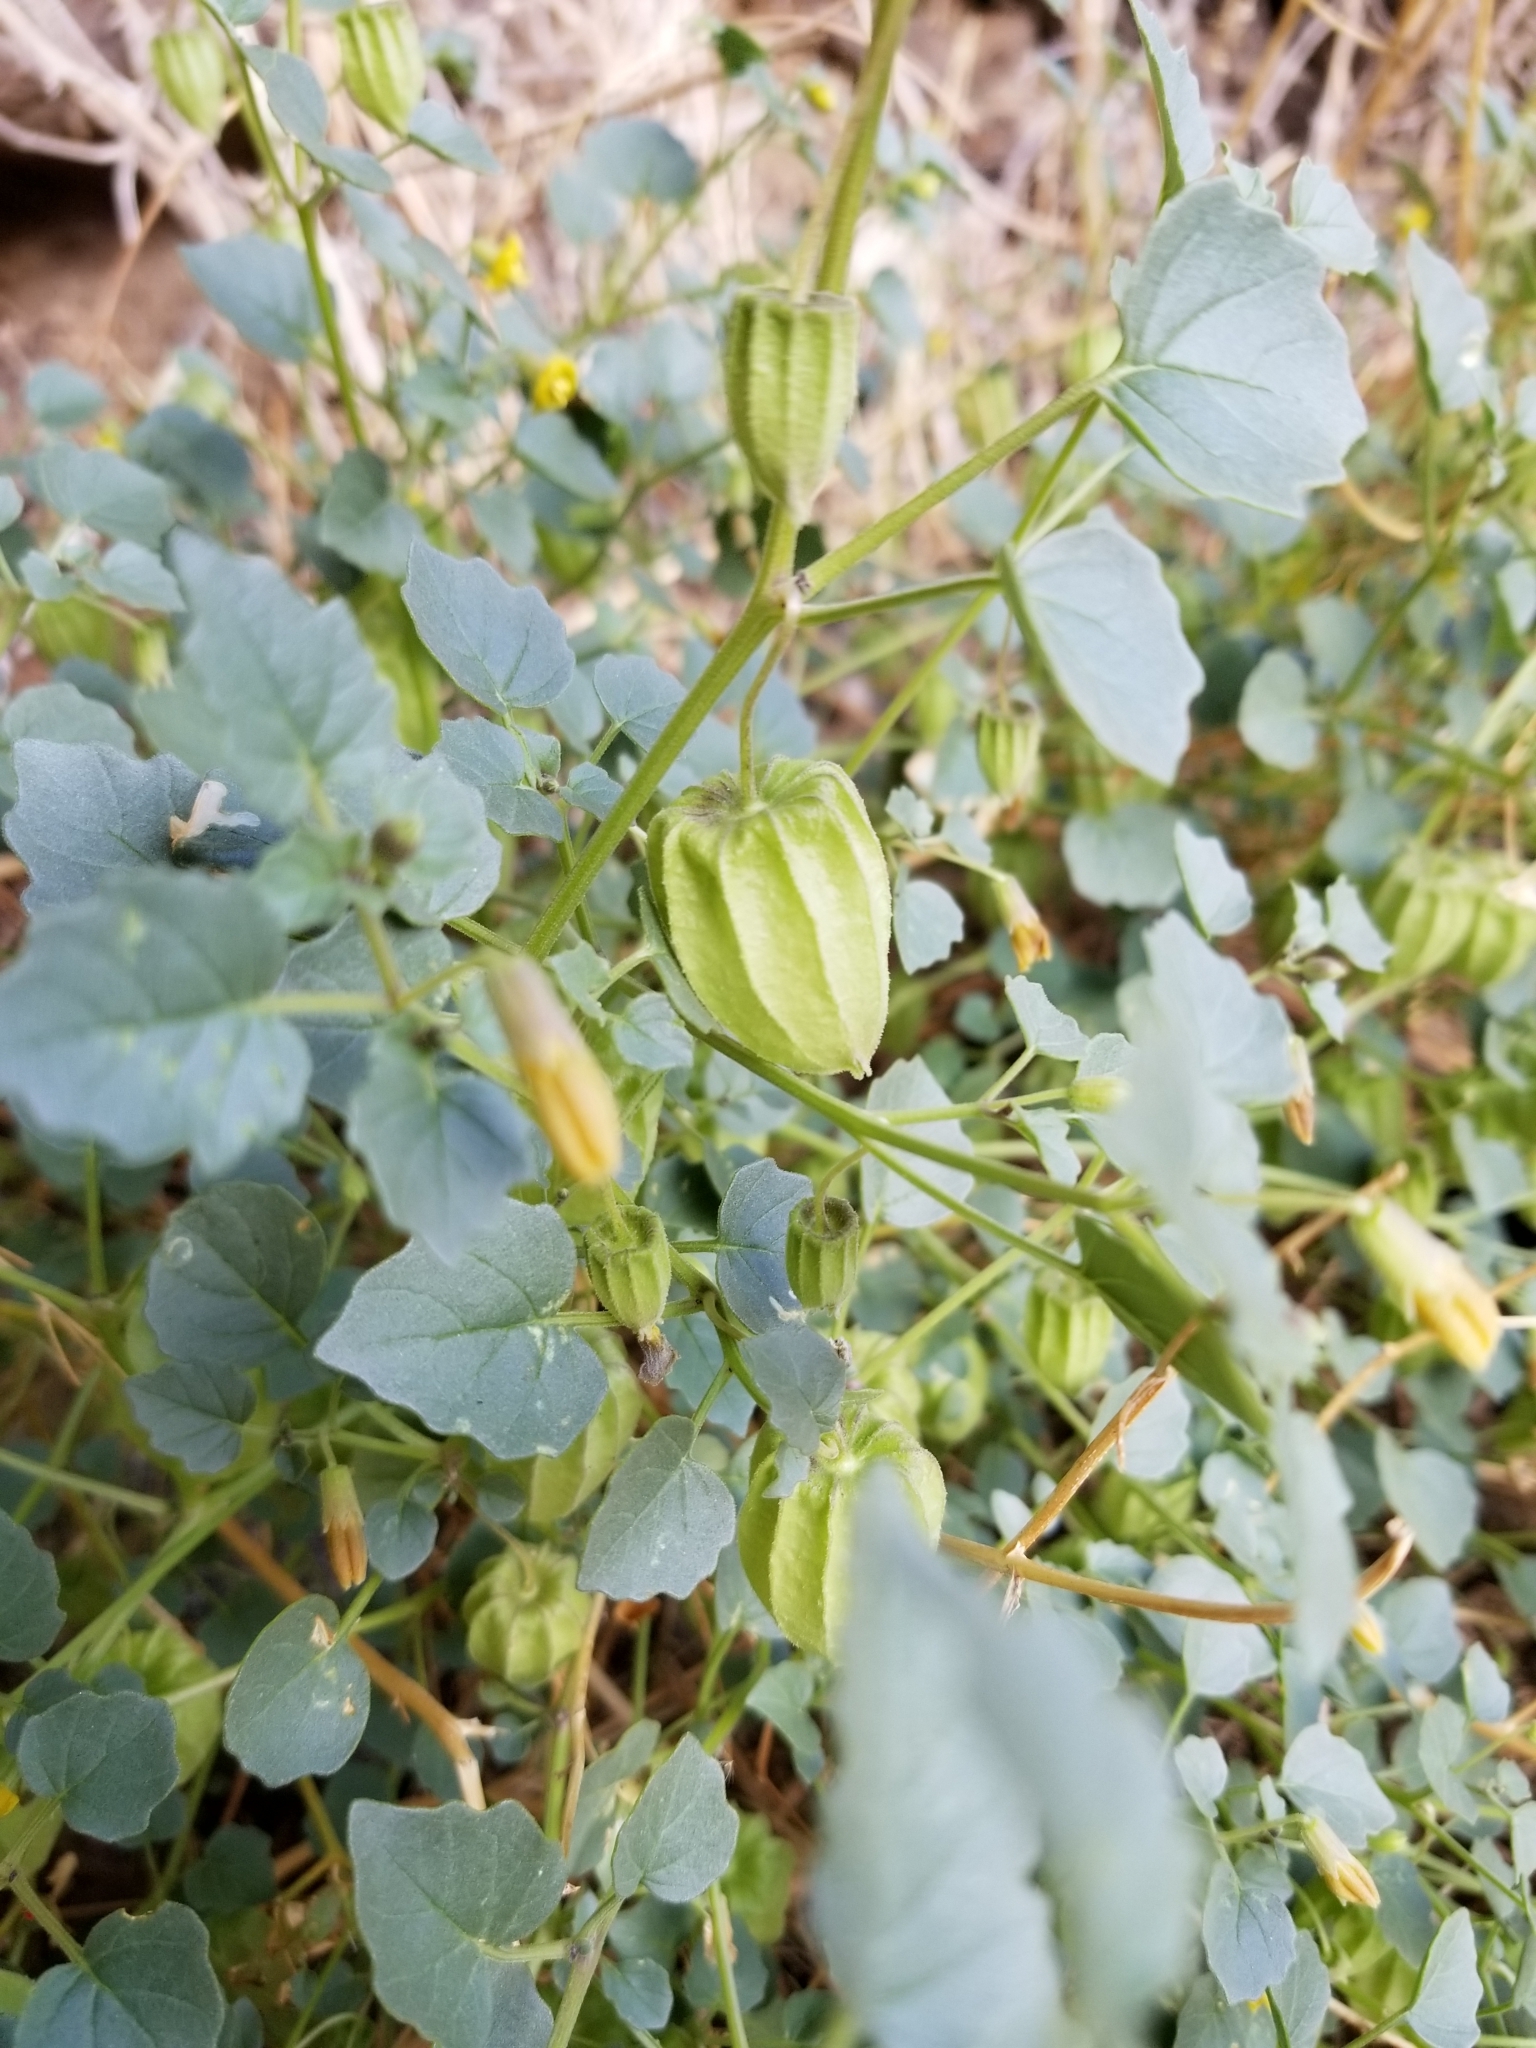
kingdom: Plantae
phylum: Tracheophyta
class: Magnoliopsida
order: Solanales
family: Solanaceae
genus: Physalis
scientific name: Physalis crassifolia
